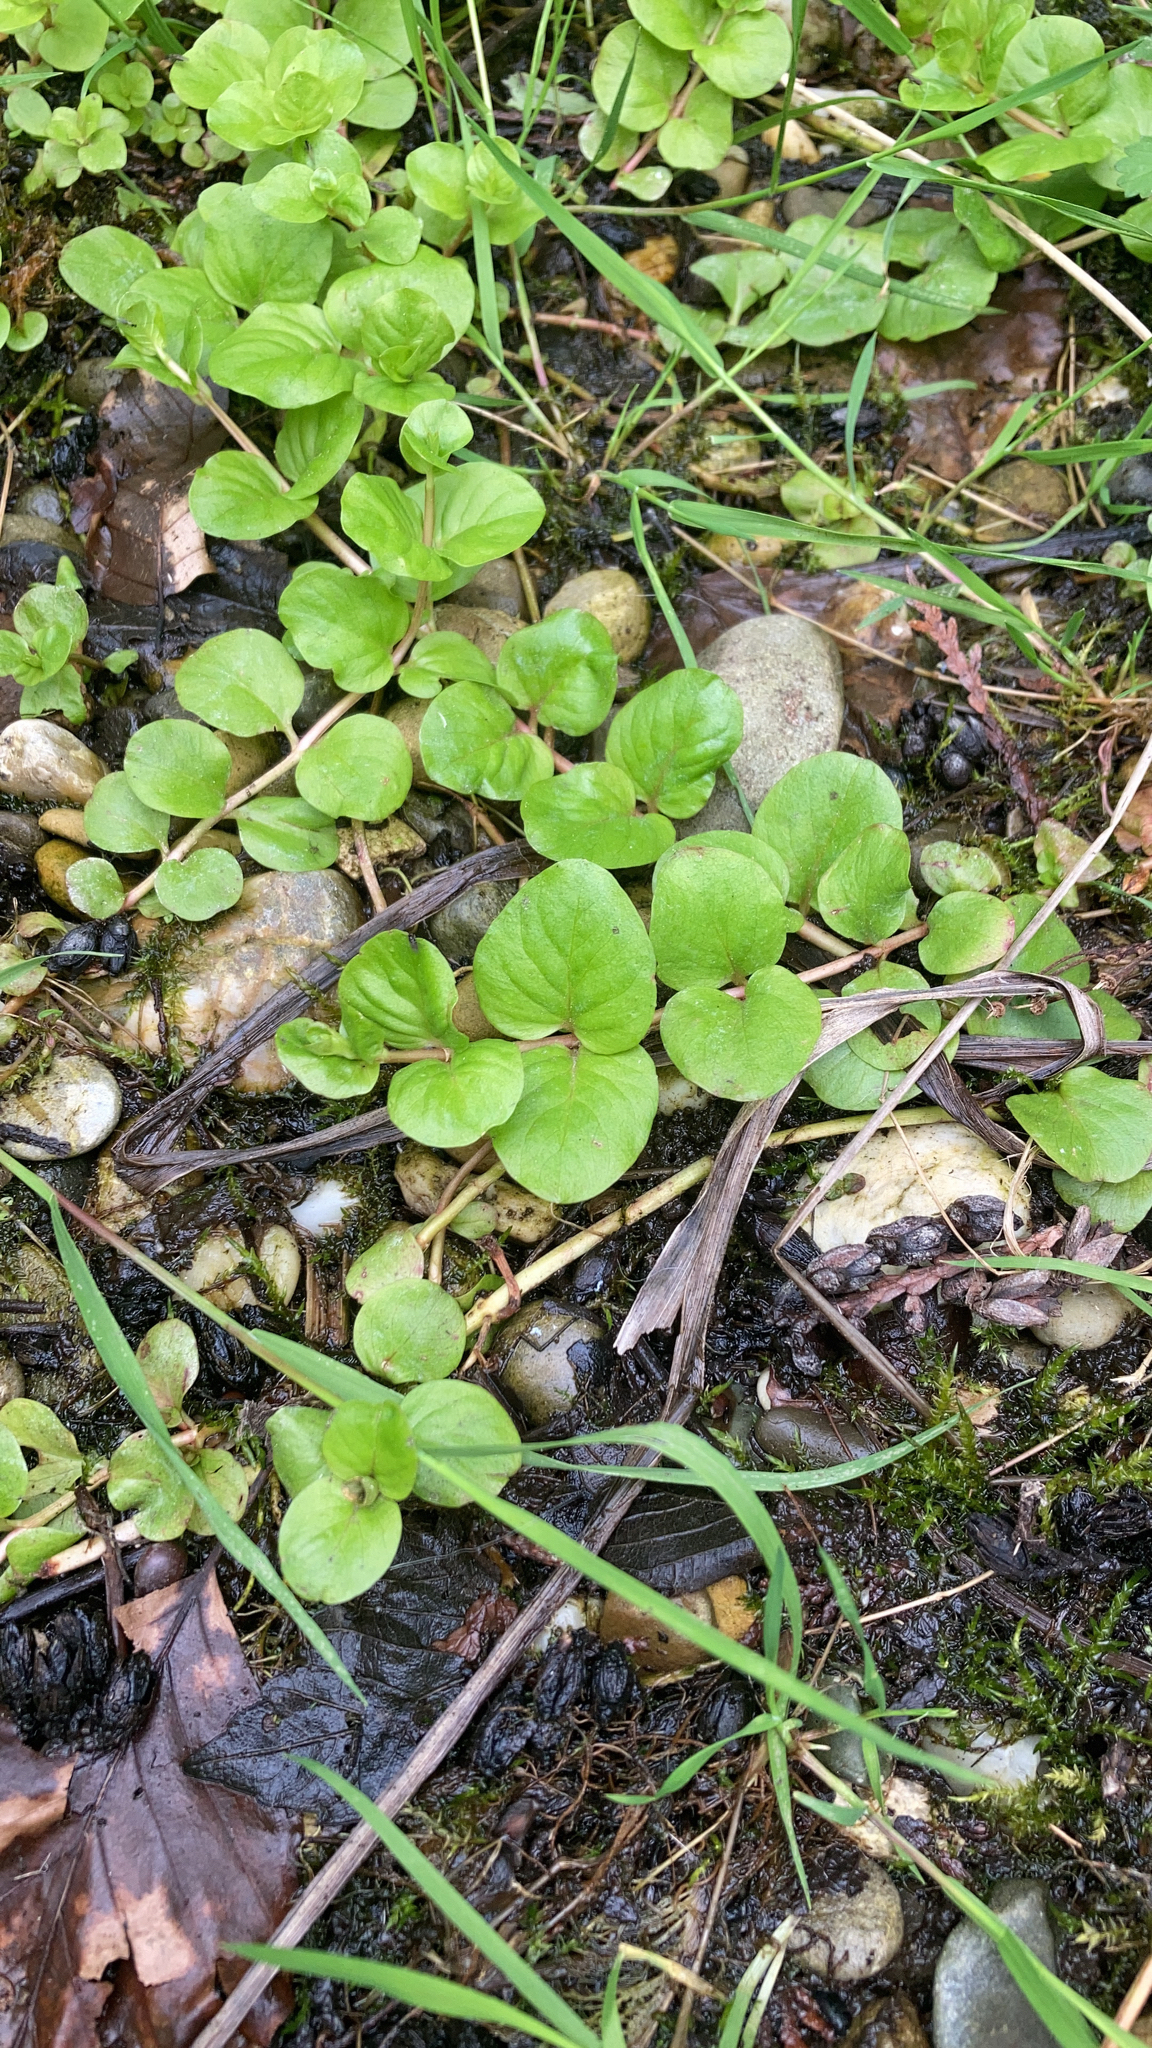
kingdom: Plantae
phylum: Tracheophyta
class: Magnoliopsida
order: Ericales
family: Primulaceae
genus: Lysimachia
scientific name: Lysimachia nummularia
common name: Moneywort
